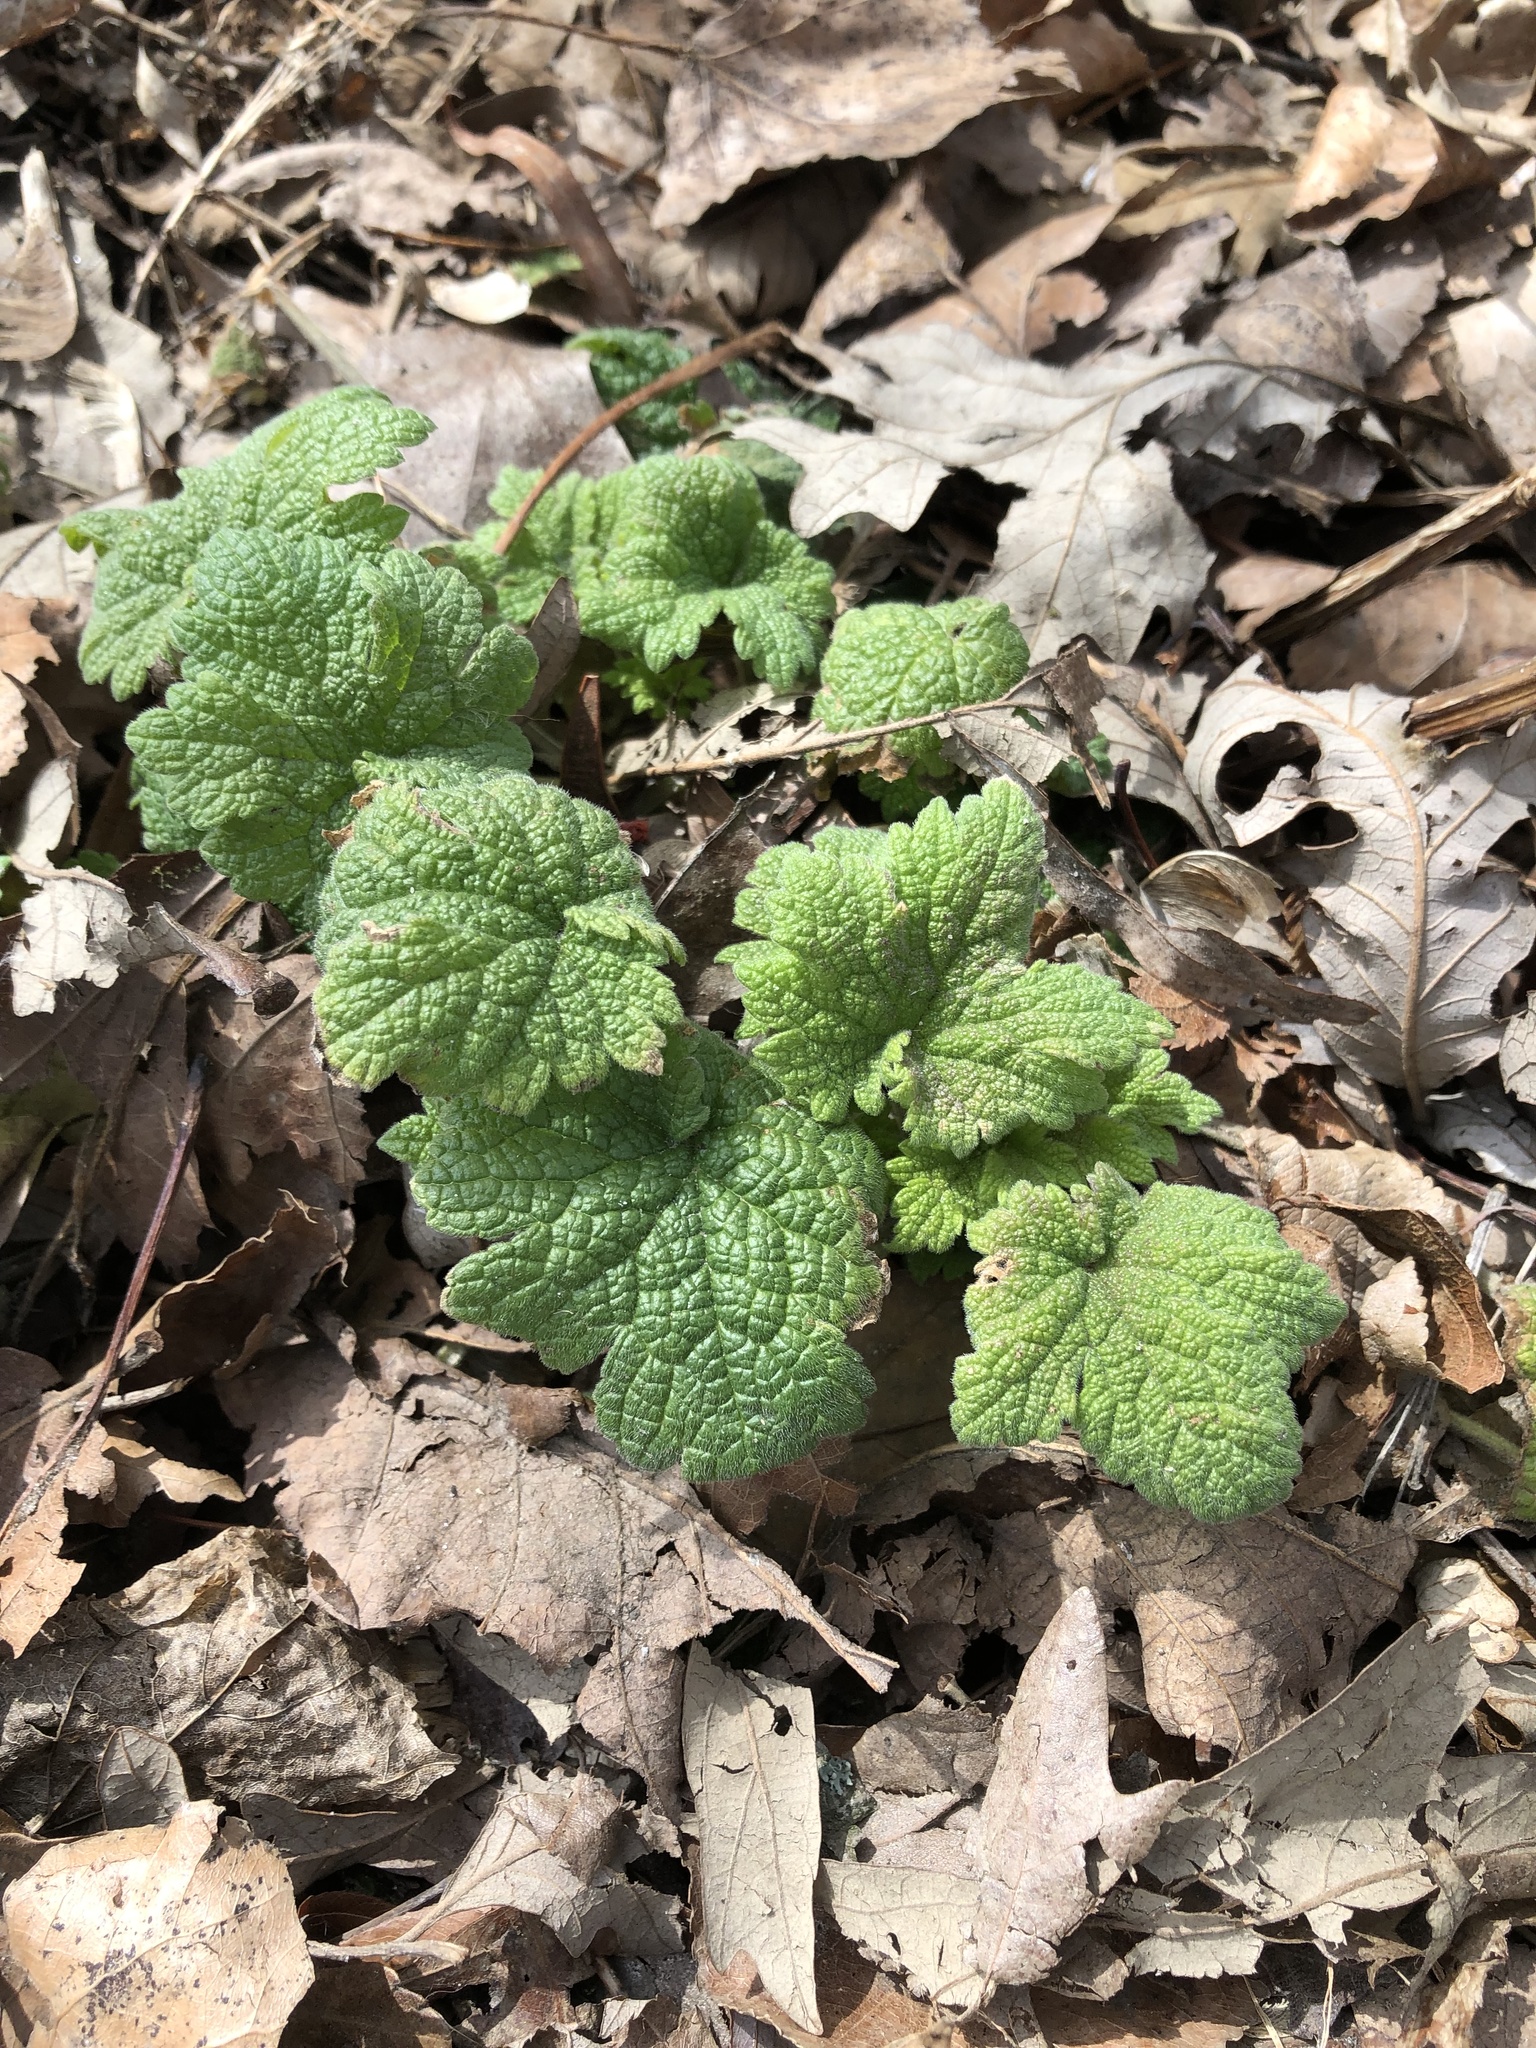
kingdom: Plantae
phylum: Tracheophyta
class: Magnoliopsida
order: Lamiales
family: Lamiaceae
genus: Leonurus
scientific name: Leonurus cardiaca
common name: Motherwort
